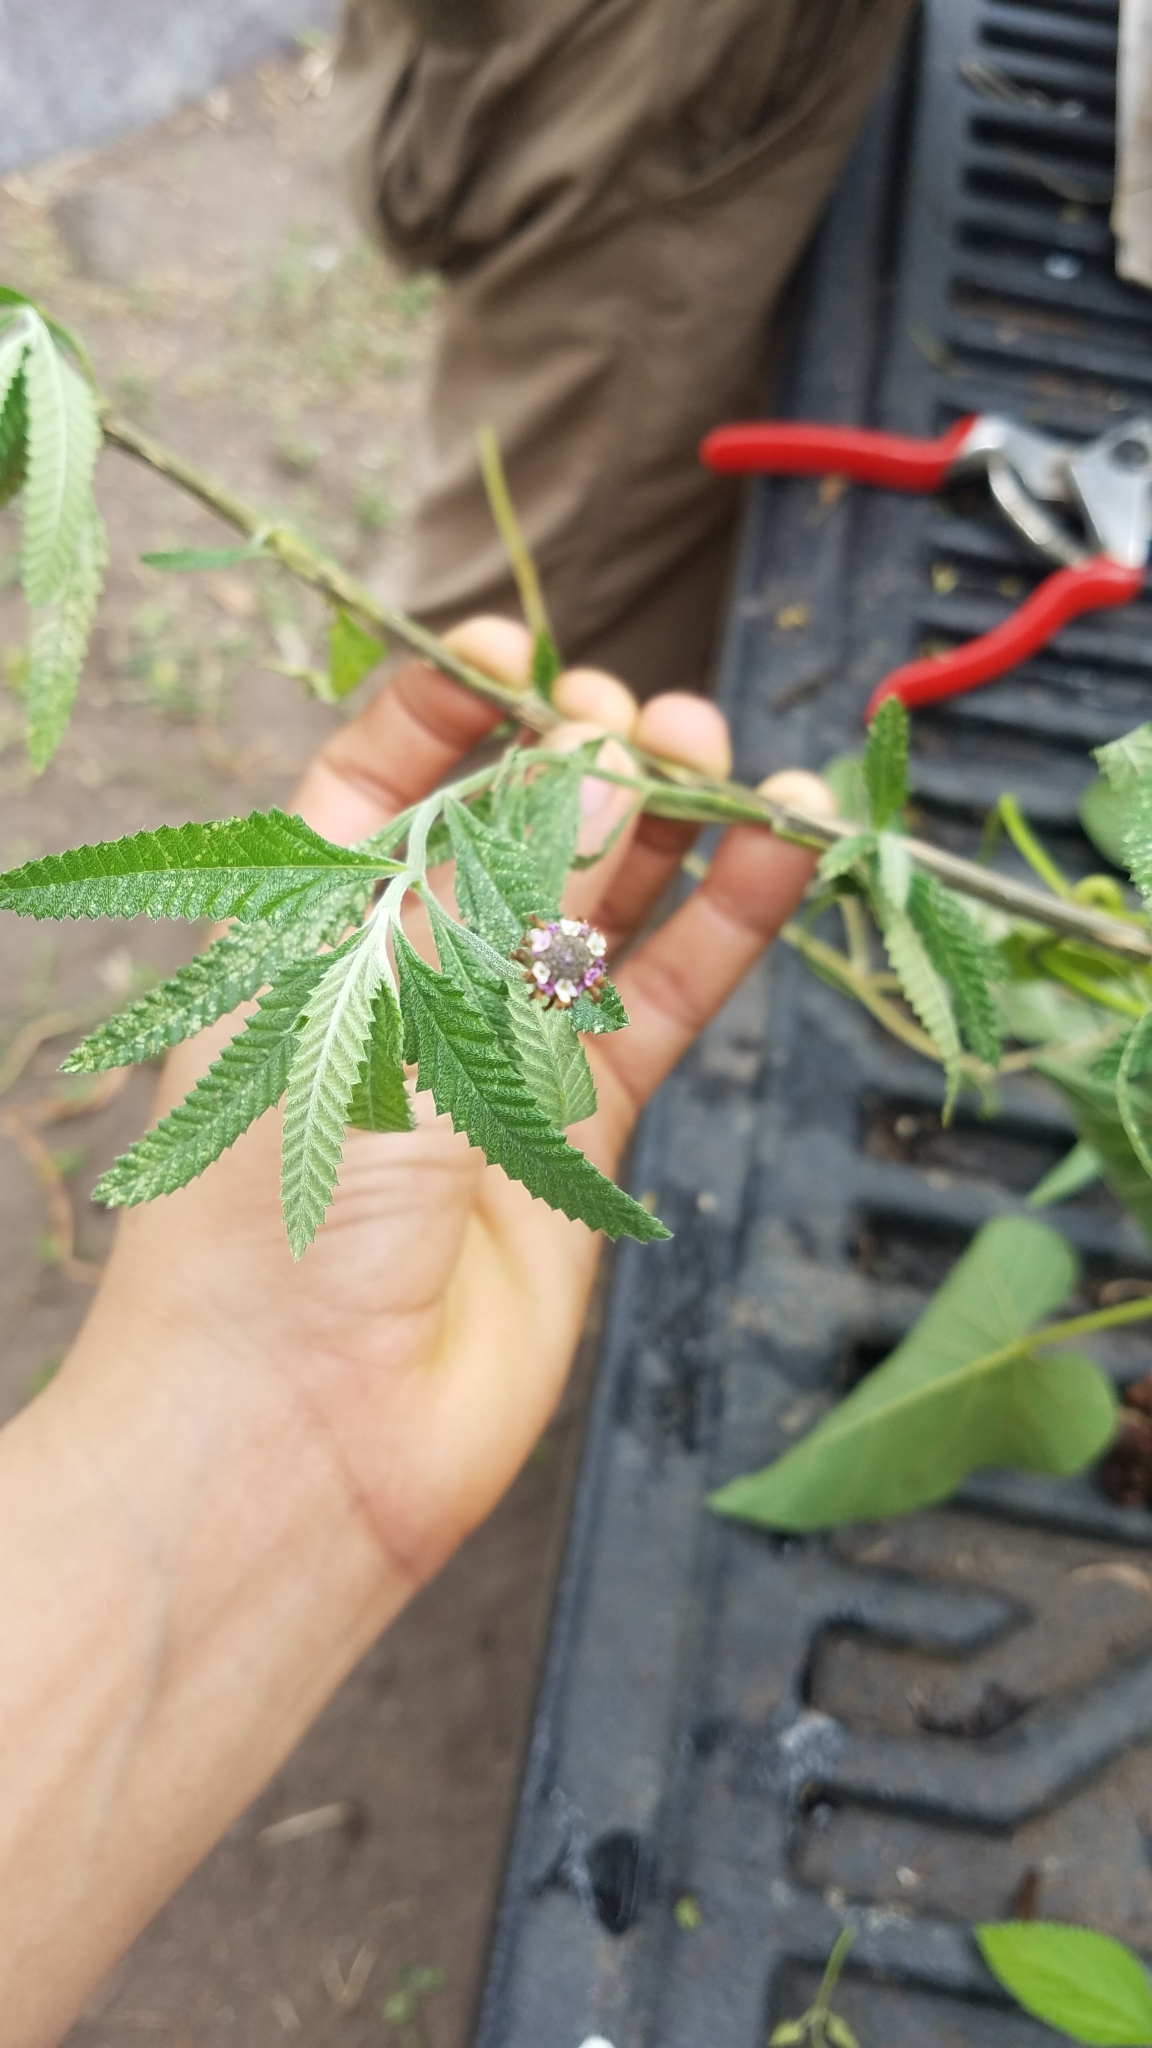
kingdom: Plantae
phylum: Tracheophyta
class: Magnoliopsida
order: Lamiales
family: Verbenaceae
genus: Lippia
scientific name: Lippia stoechadifolia
